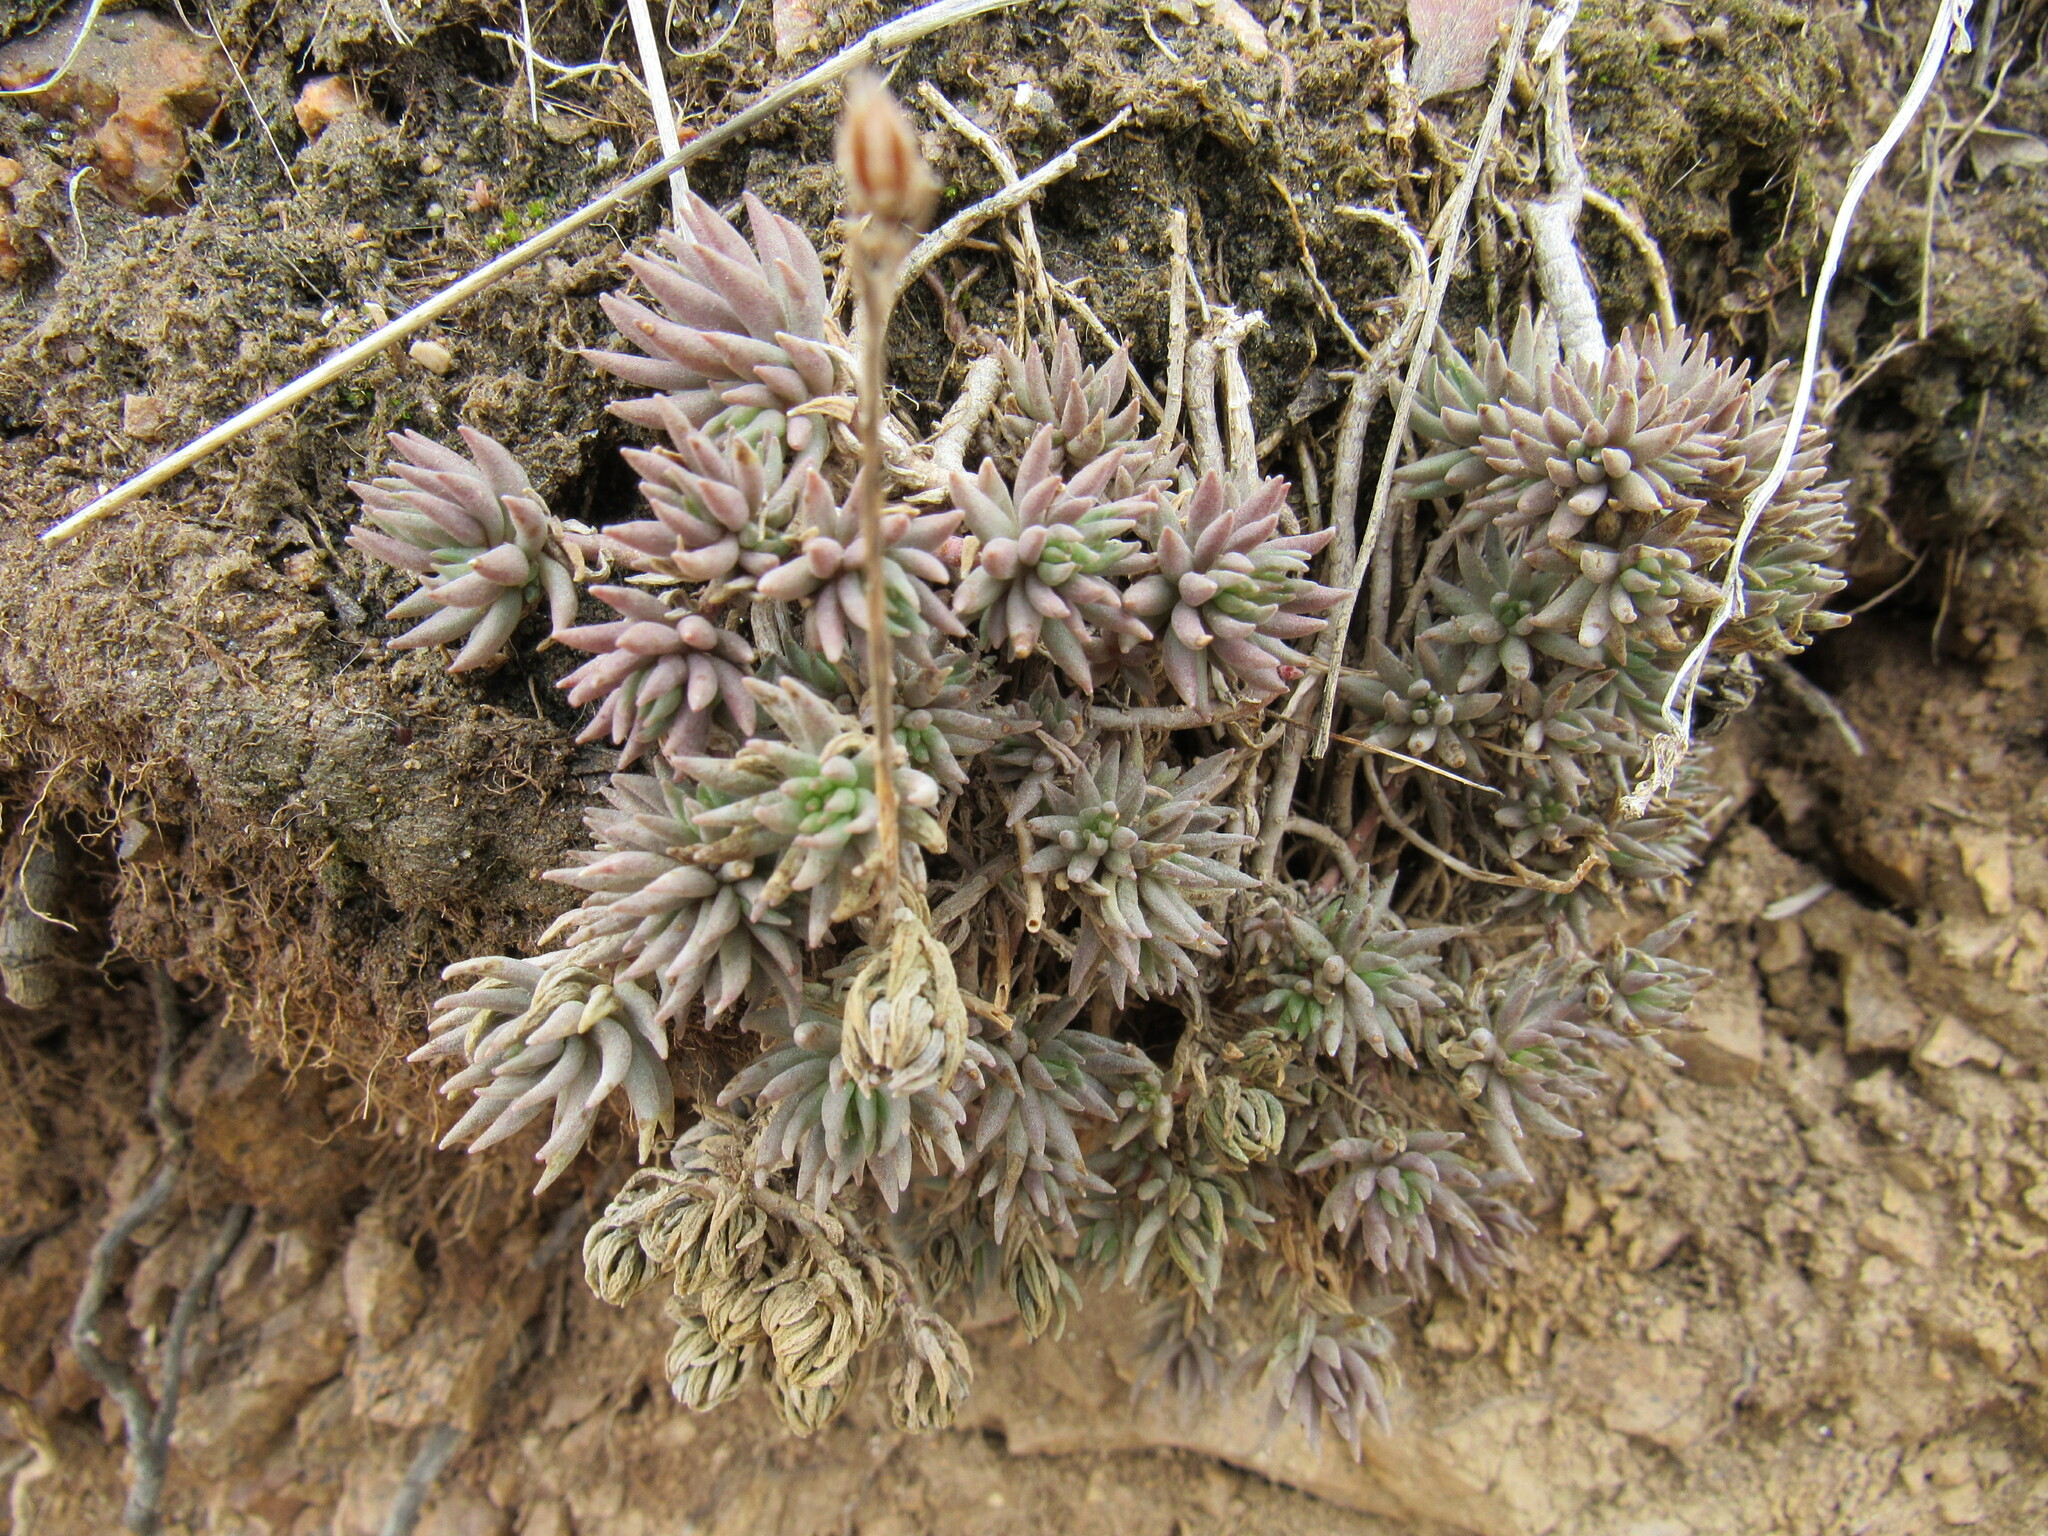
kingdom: Plantae
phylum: Tracheophyta
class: Magnoliopsida
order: Saxifragales
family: Crassulaceae
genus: Sedum
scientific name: Sedum lanceolatum
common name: Common stonecrop
